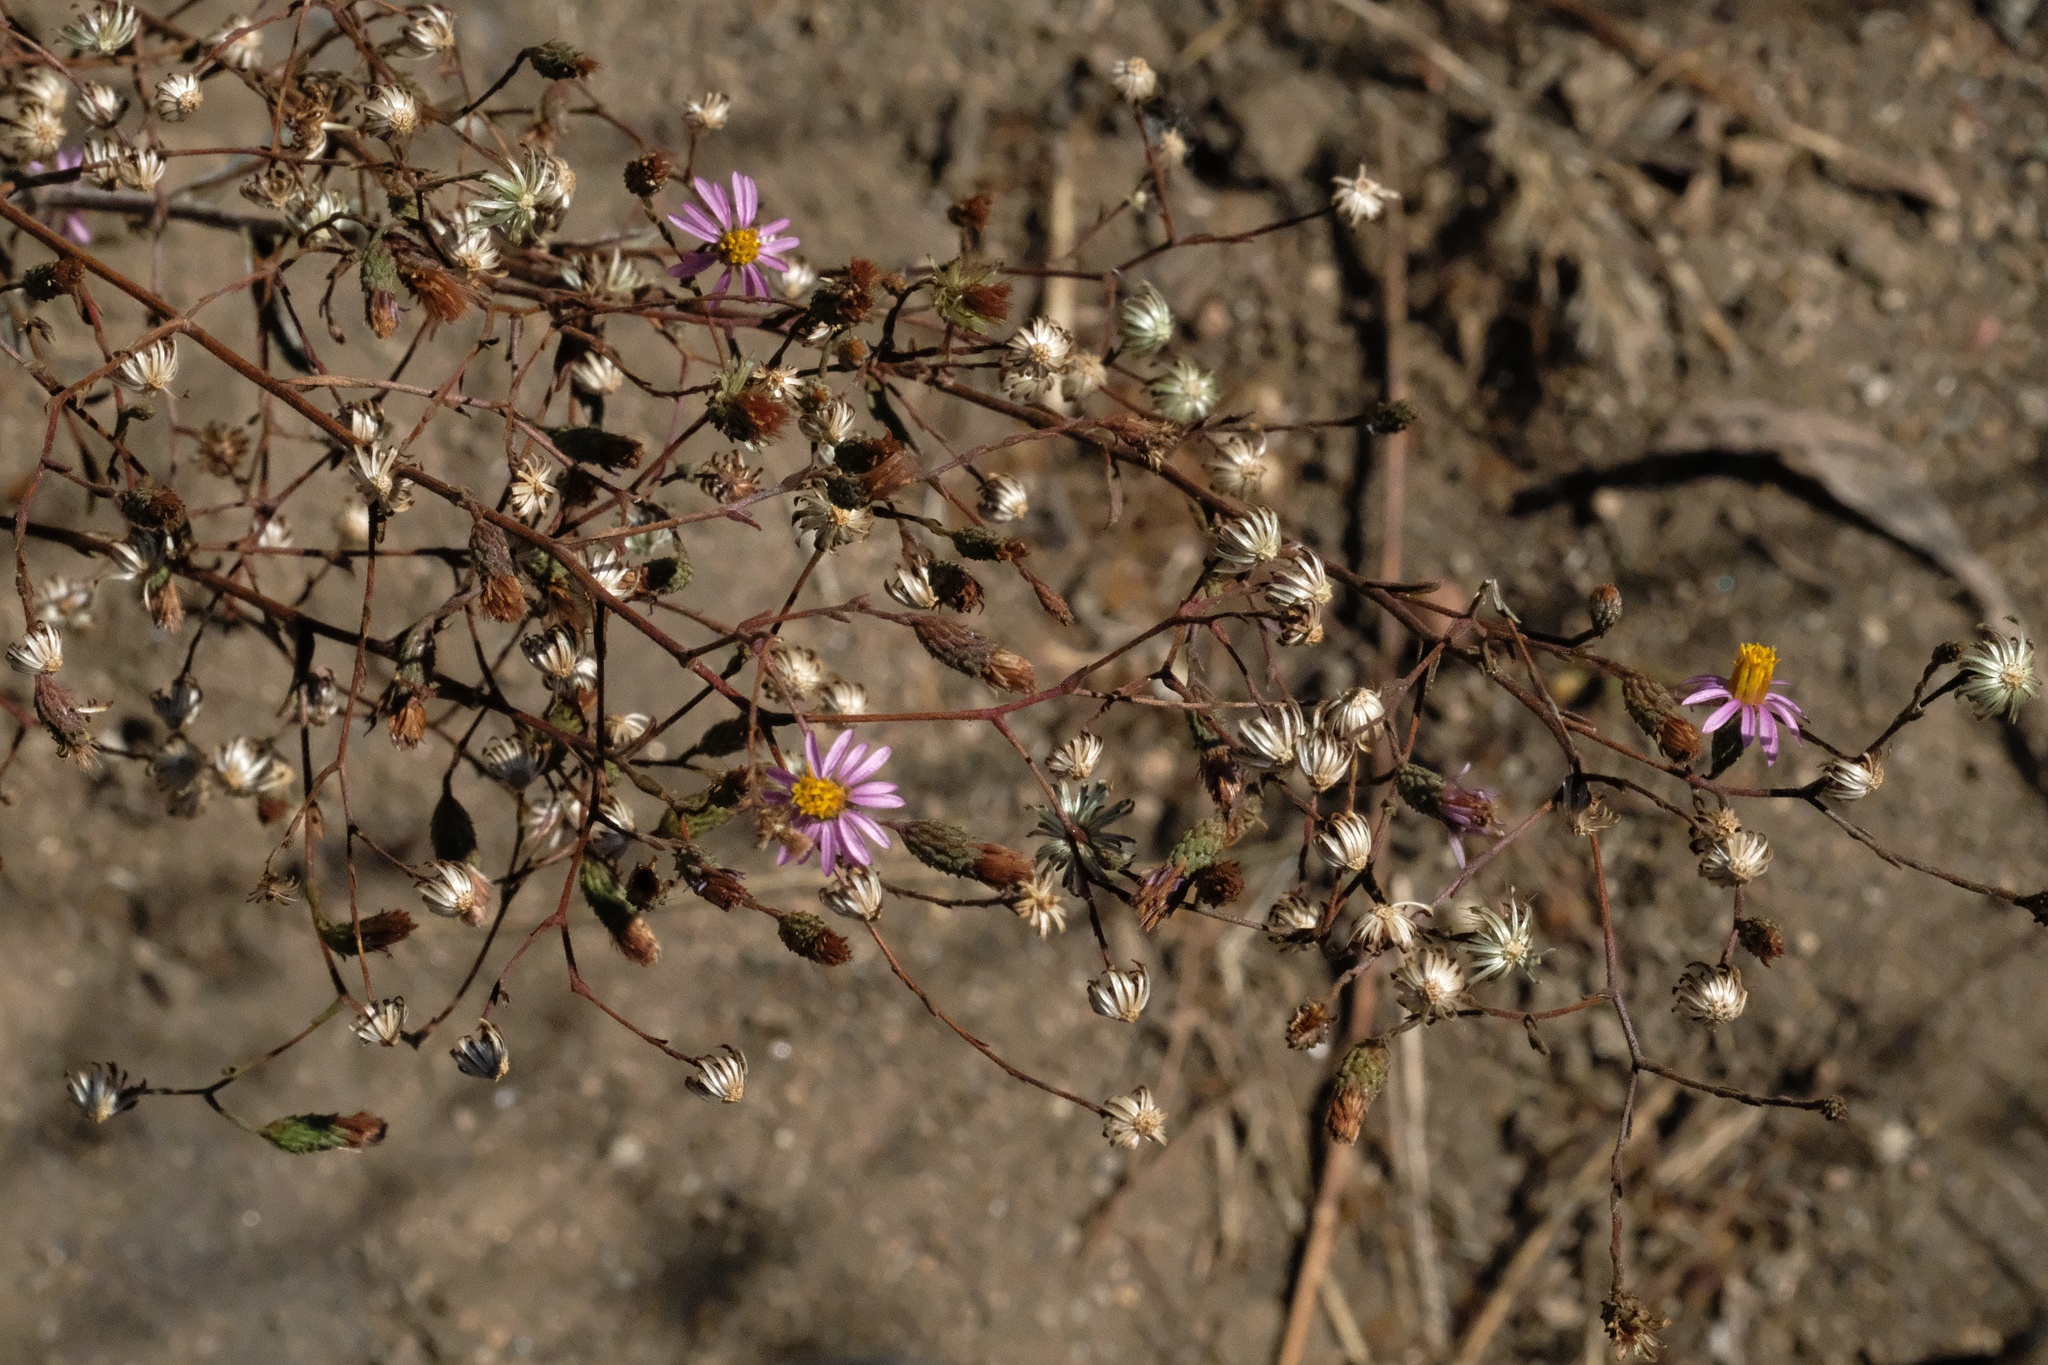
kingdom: Plantae
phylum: Tracheophyta
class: Magnoliopsida
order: Asterales
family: Asteraceae
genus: Corethrogyne
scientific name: Corethrogyne filaginifolia
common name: Sand-aster
